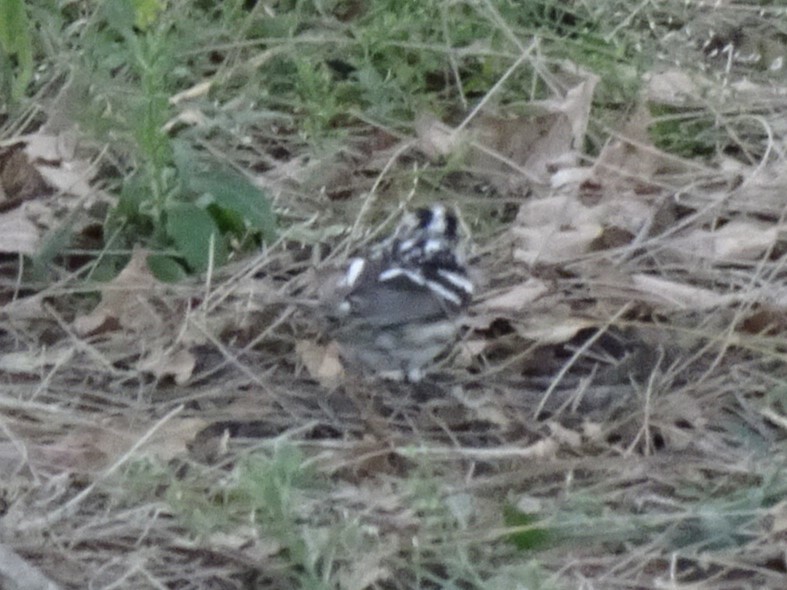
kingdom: Animalia
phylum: Chordata
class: Aves
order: Passeriformes
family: Parulidae
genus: Mniotilta
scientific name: Mniotilta varia
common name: Black-and-white warbler
